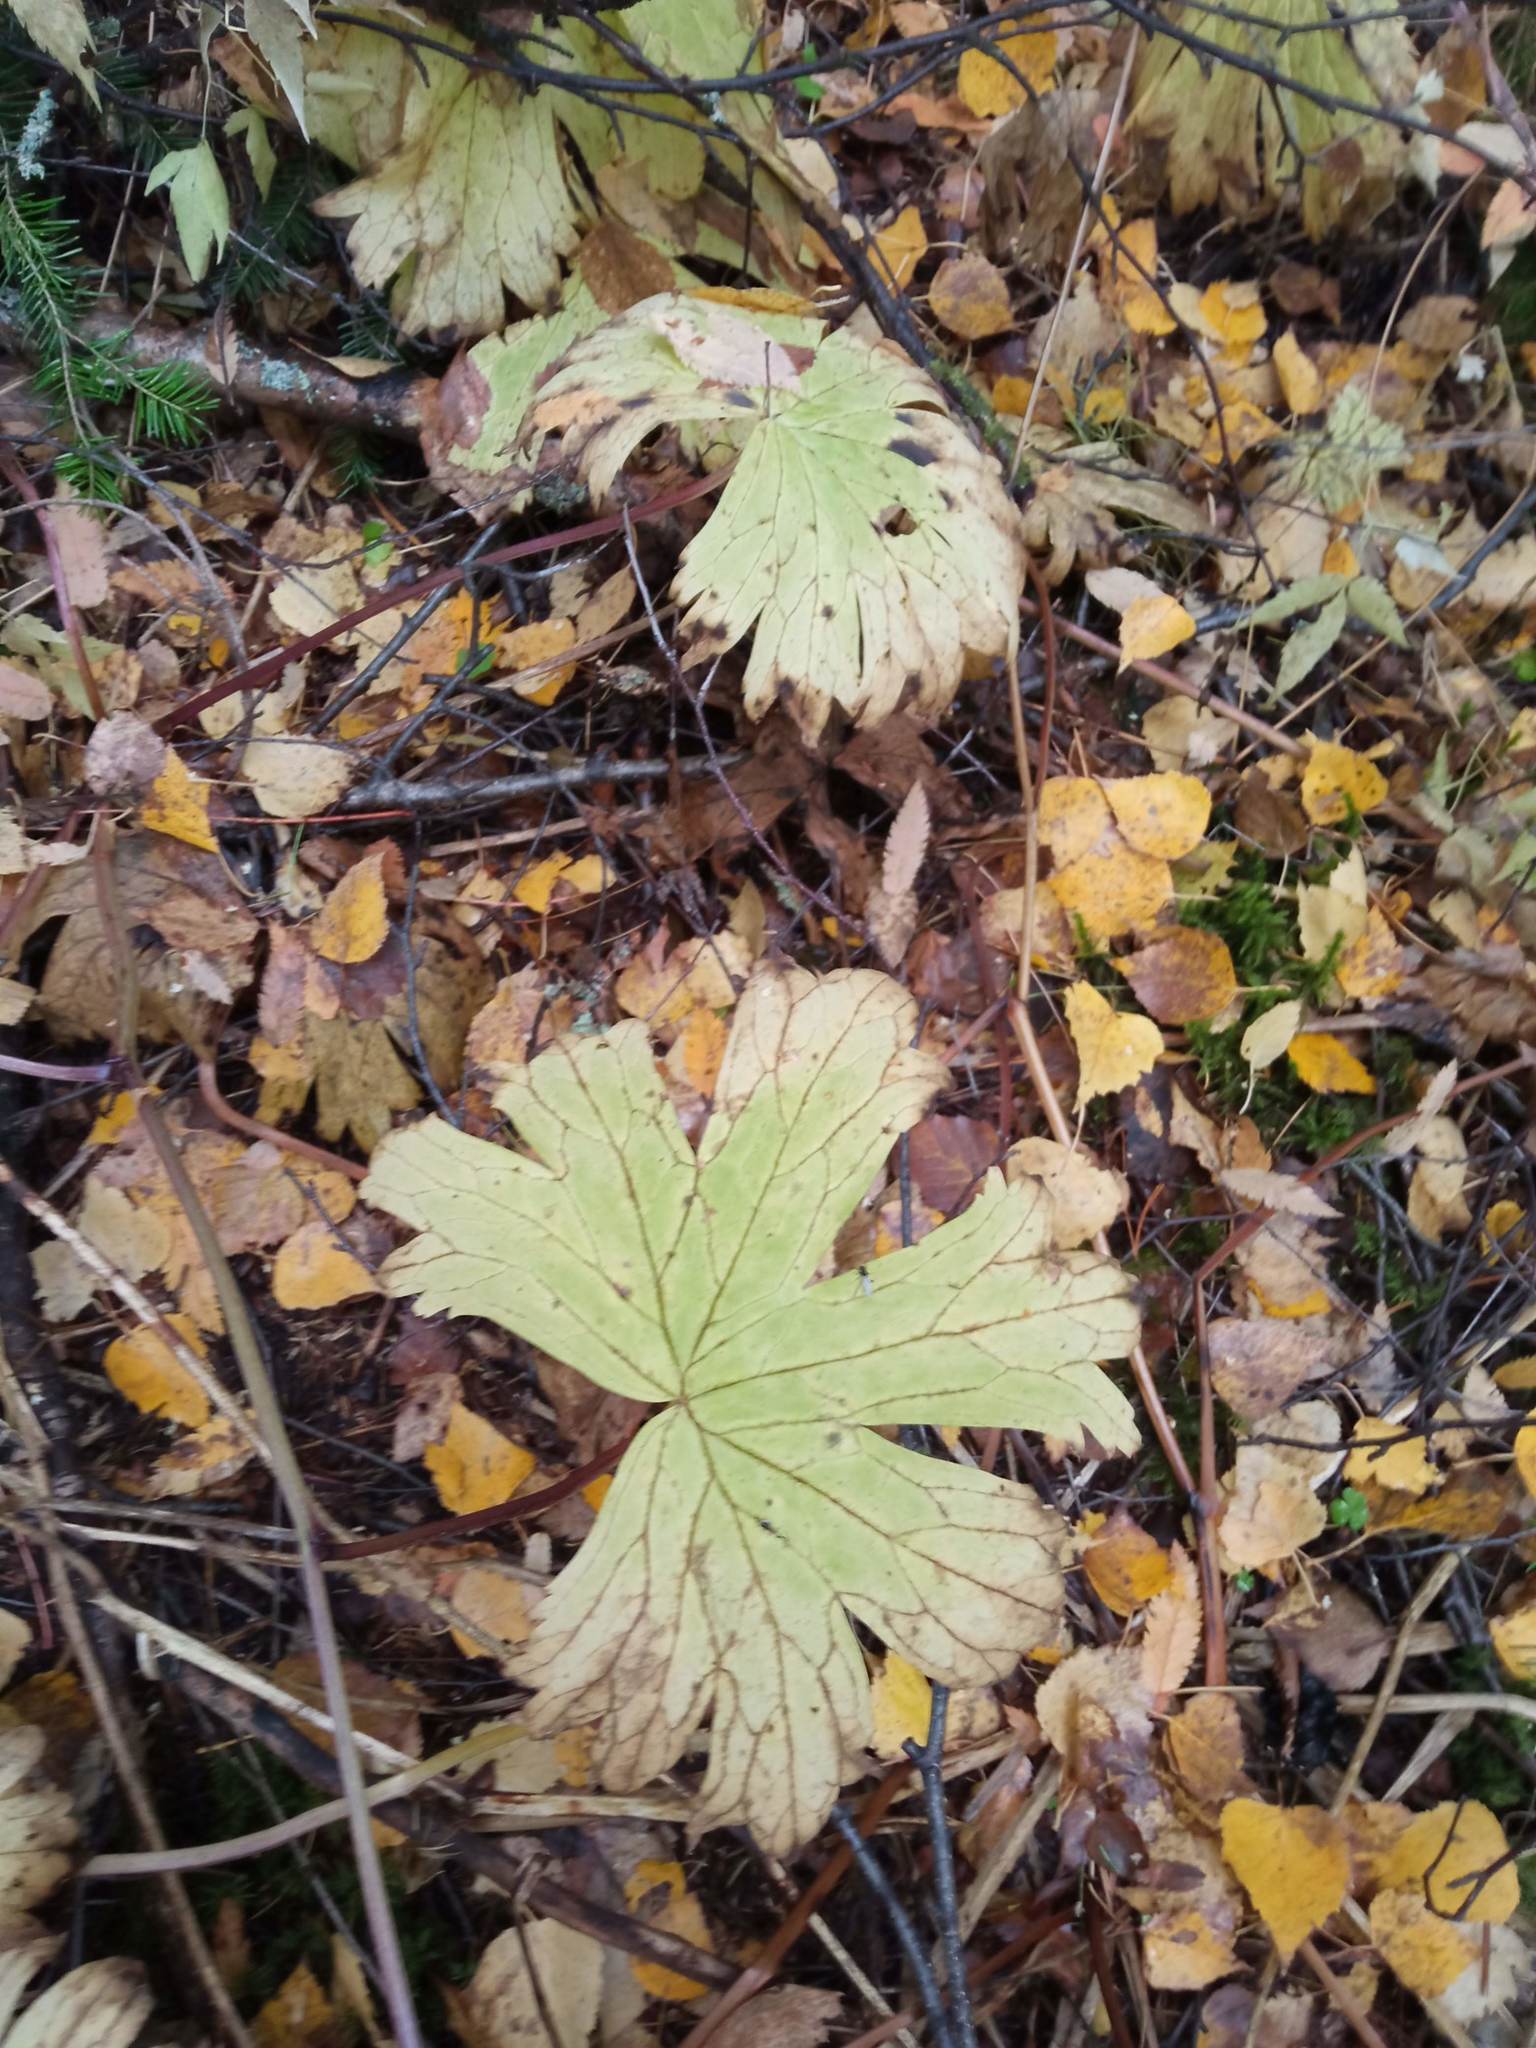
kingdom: Plantae
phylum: Tracheophyta
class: Magnoliopsida
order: Ranunculales
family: Ranunculaceae
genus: Aconitum
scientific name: Aconitum septentrionale
